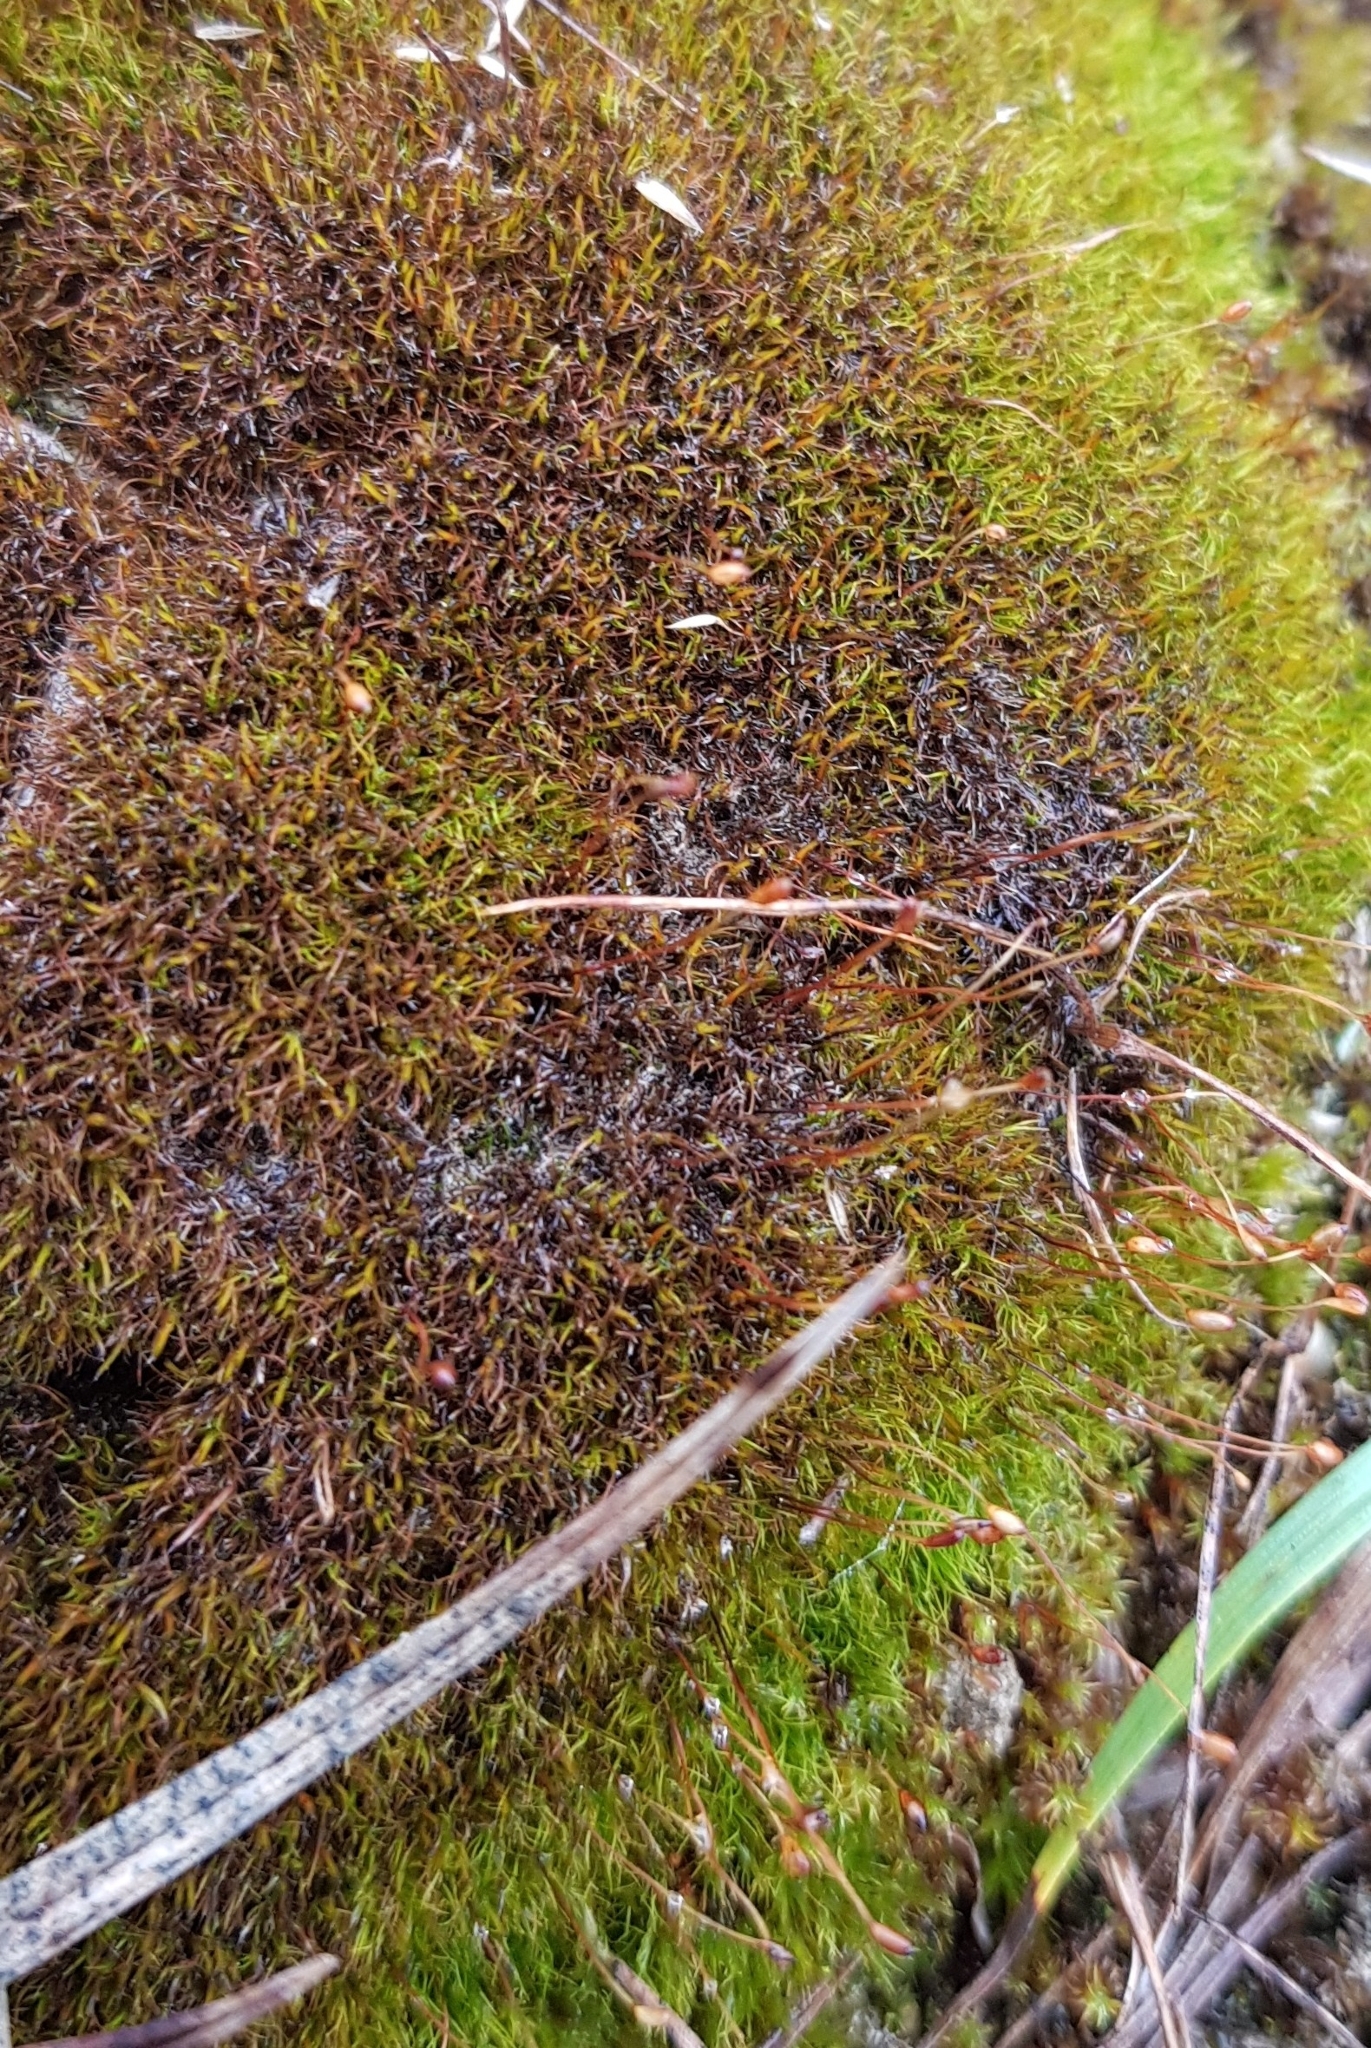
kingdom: Plantae
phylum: Bryophyta
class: Bryopsida
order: Dicranales
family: Ditrichaceae
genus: Ditrichum
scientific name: Ditrichum heteromallum
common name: Curve-leaved ditrichum
